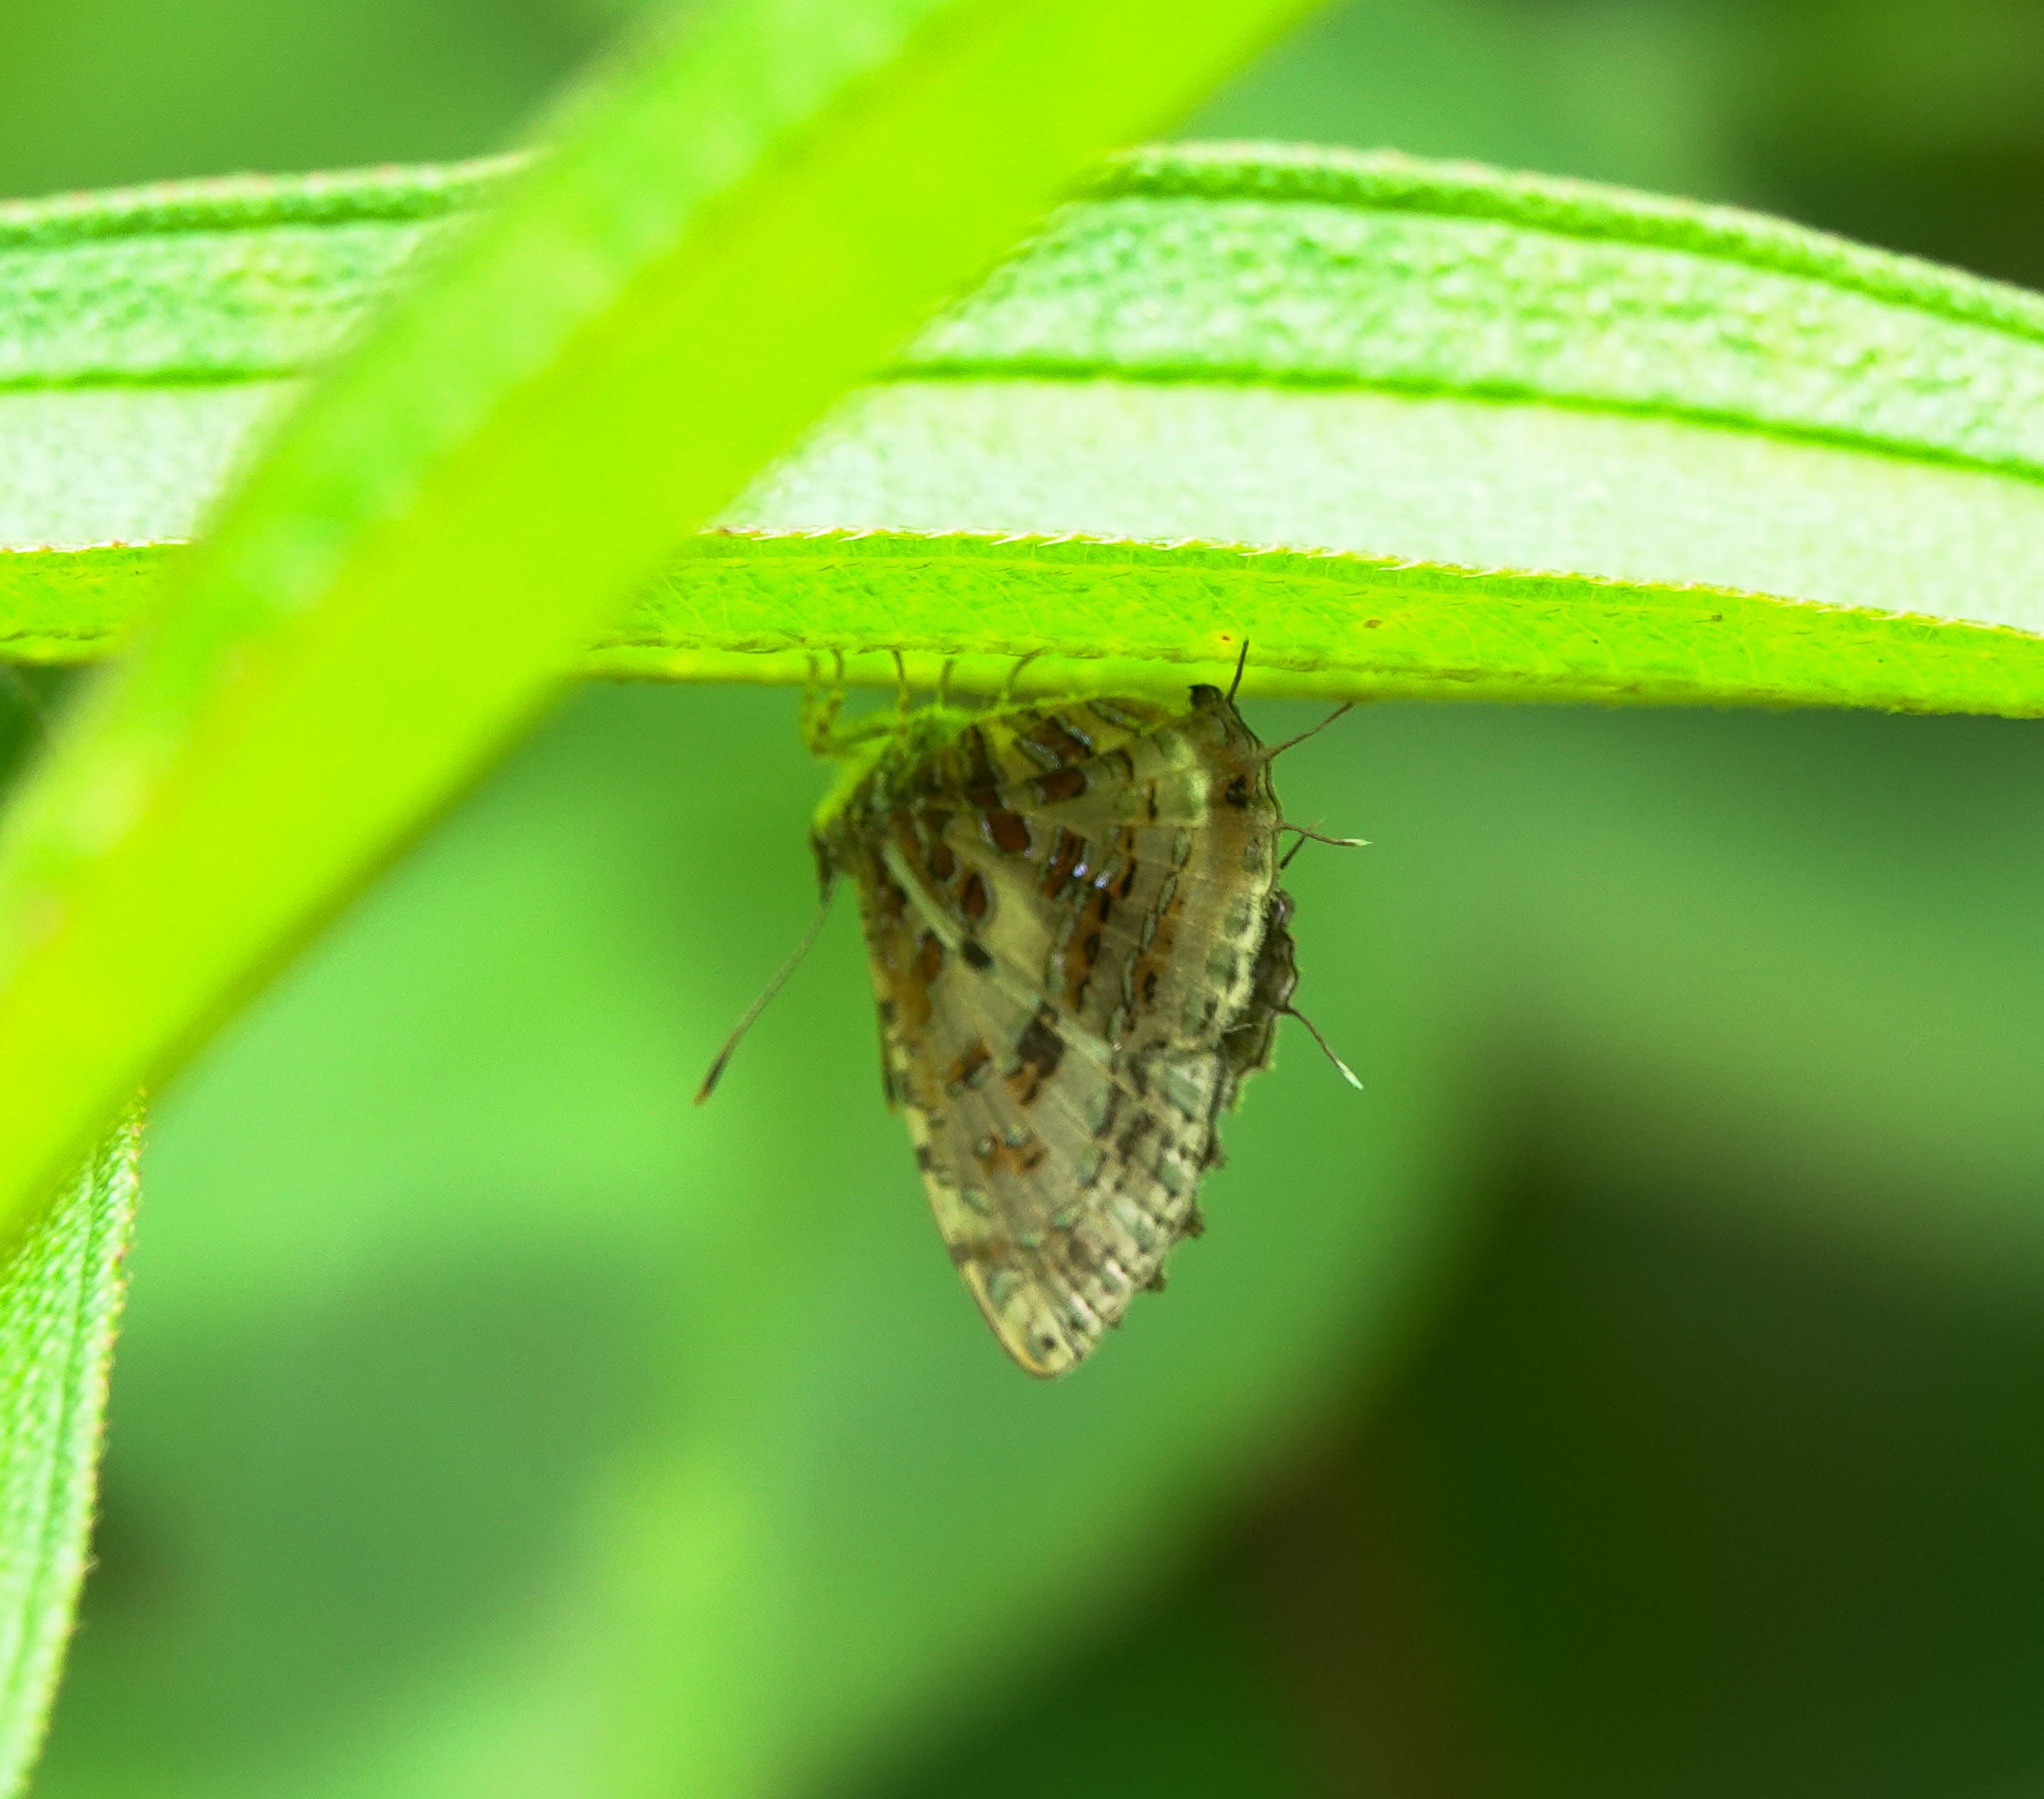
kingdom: Animalia
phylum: Arthropoda
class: Insecta
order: Lepidoptera
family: Lycaenidae
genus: Catapaecilma
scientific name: Catapaecilma major
